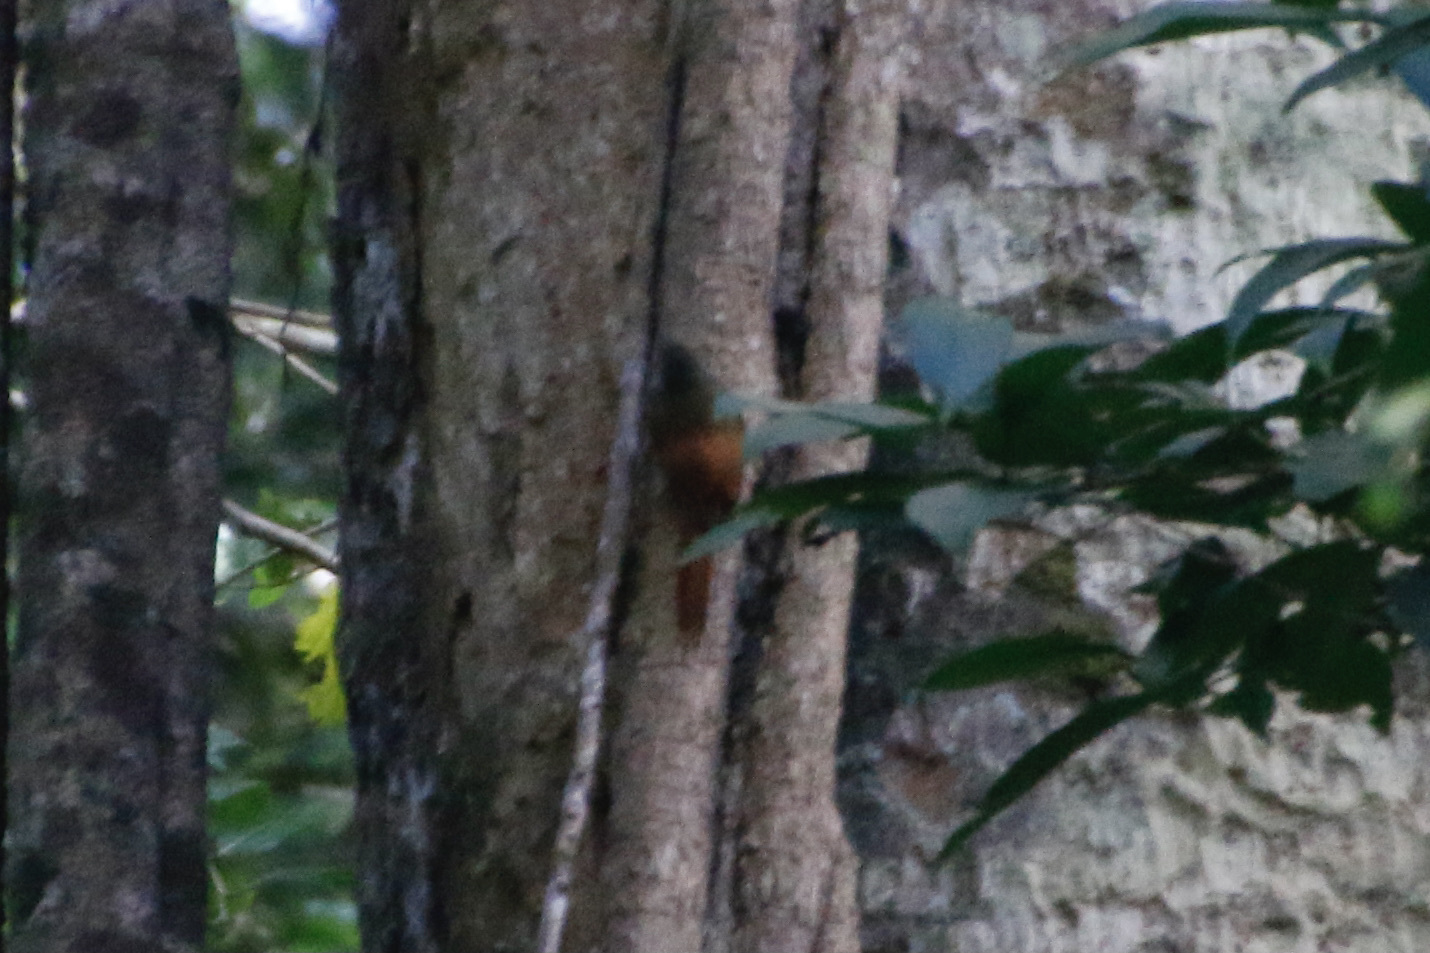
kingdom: Animalia
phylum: Chordata
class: Aves
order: Passeriformes
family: Furnariidae
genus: Sittasomus
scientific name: Sittasomus griseicapillus
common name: Olivaceous woodcreeper
